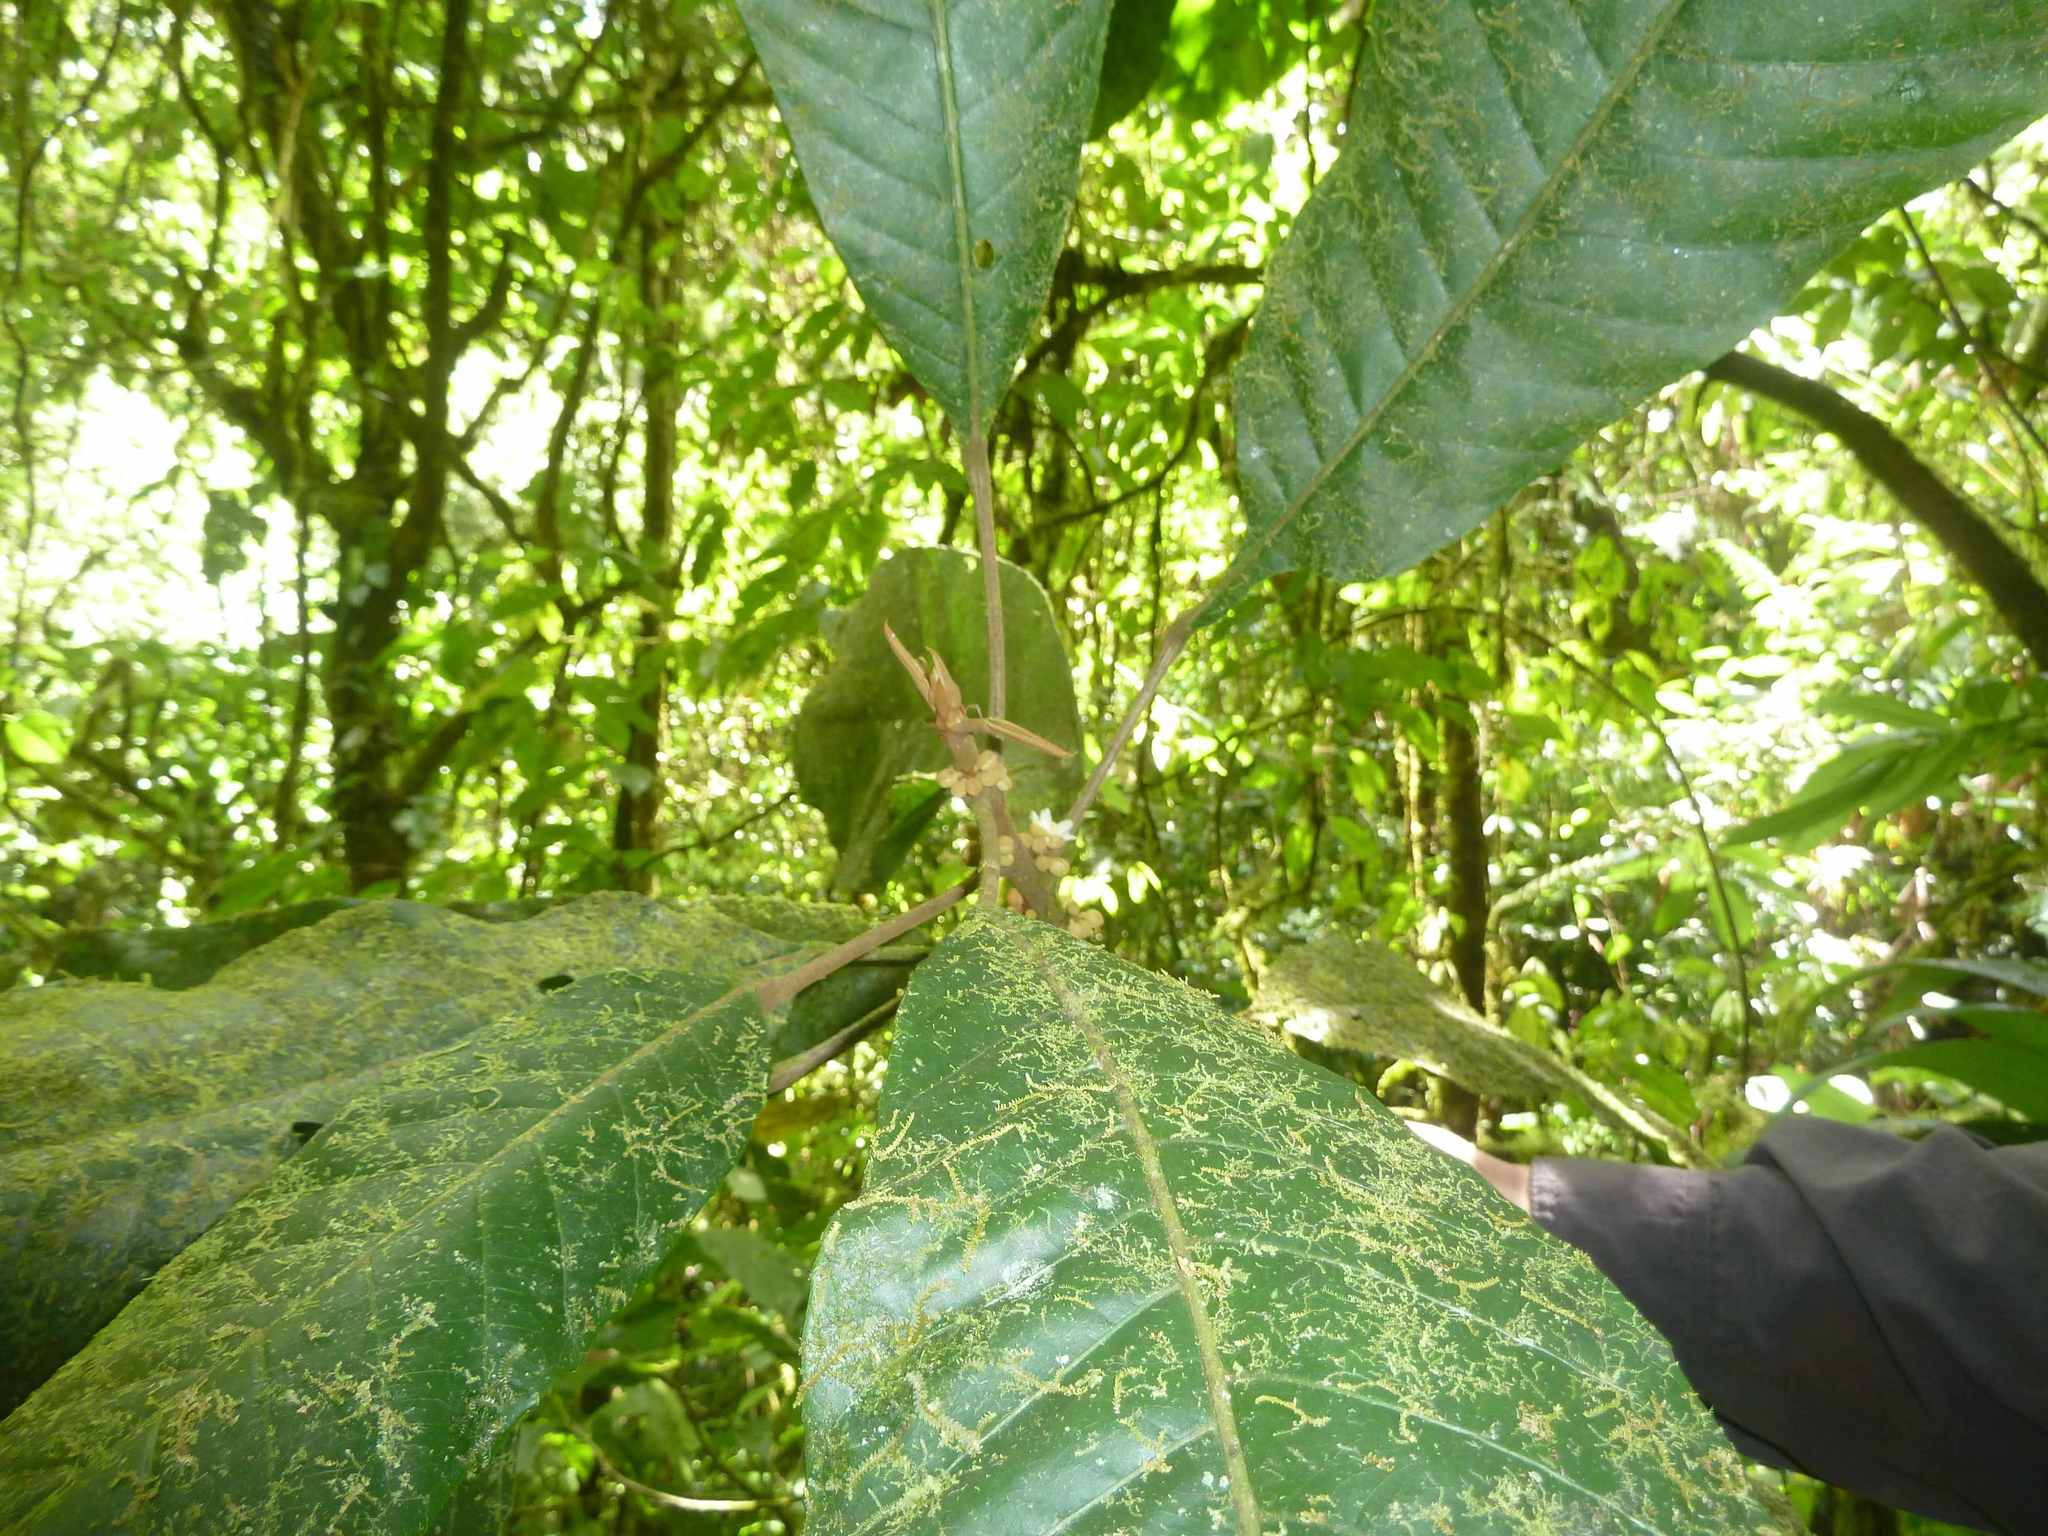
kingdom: Plantae
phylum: Tracheophyta
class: Magnoliopsida
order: Malpighiales
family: Achariaceae
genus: Carpotroche
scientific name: Carpotroche platyptera
